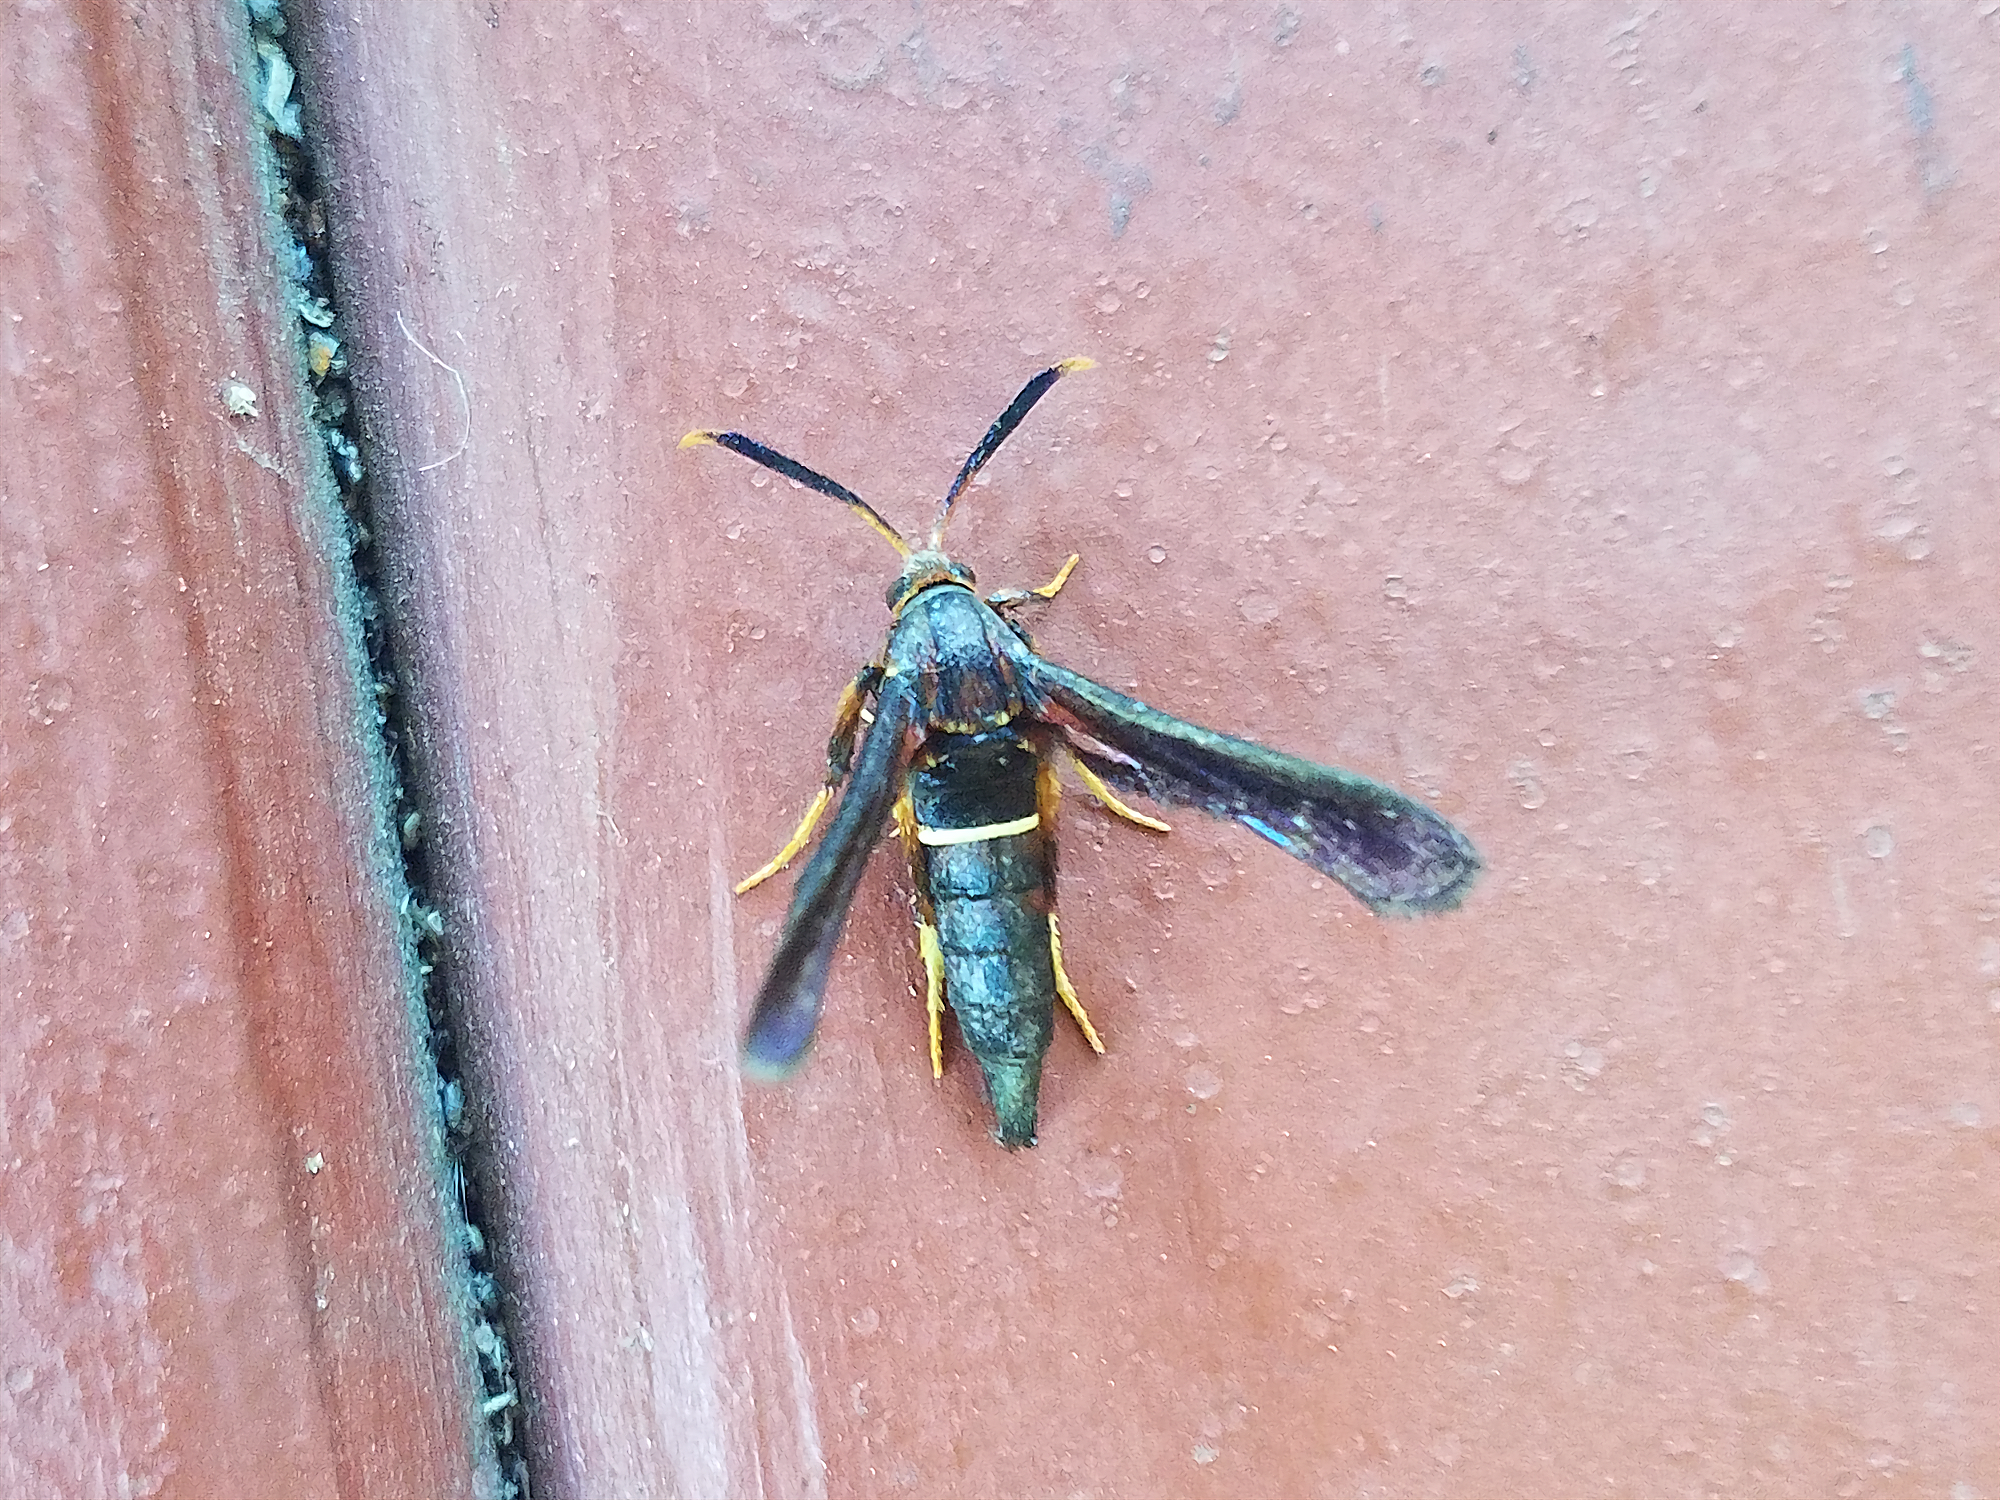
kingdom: Animalia
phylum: Arthropoda
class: Insecta
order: Lepidoptera
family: Sesiidae
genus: Vitacea
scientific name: Vitacea scepsiformis
